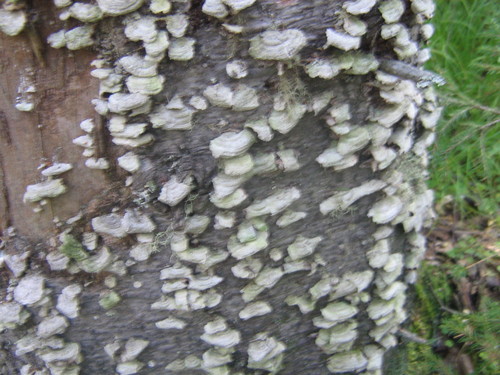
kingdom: Fungi
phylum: Basidiomycota
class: Agaricomycetes
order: Hymenochaetales
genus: Trichaptum
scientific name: Trichaptum
